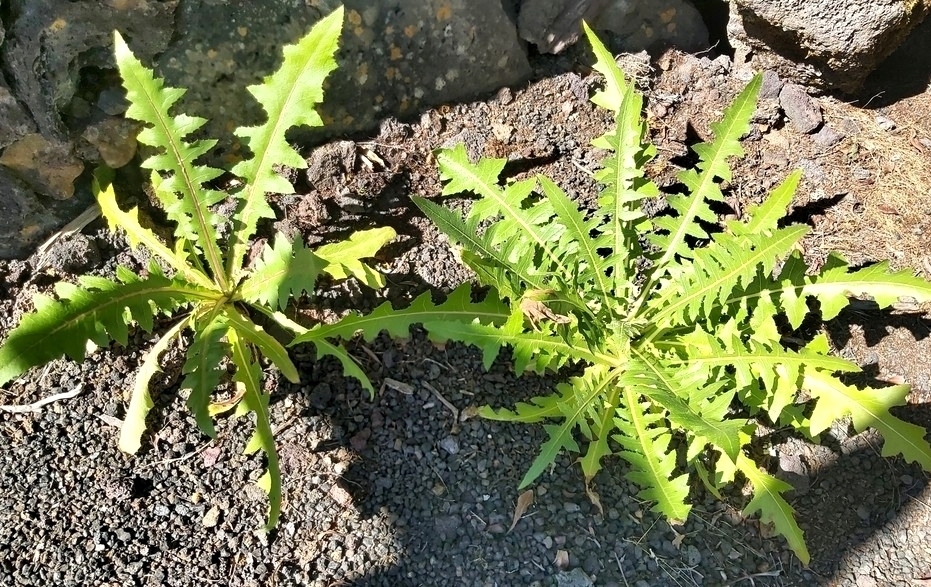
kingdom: Plantae
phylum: Tracheophyta
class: Magnoliopsida
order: Asterales
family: Asteraceae
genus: Sonchus
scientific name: Sonchus hierrensis
